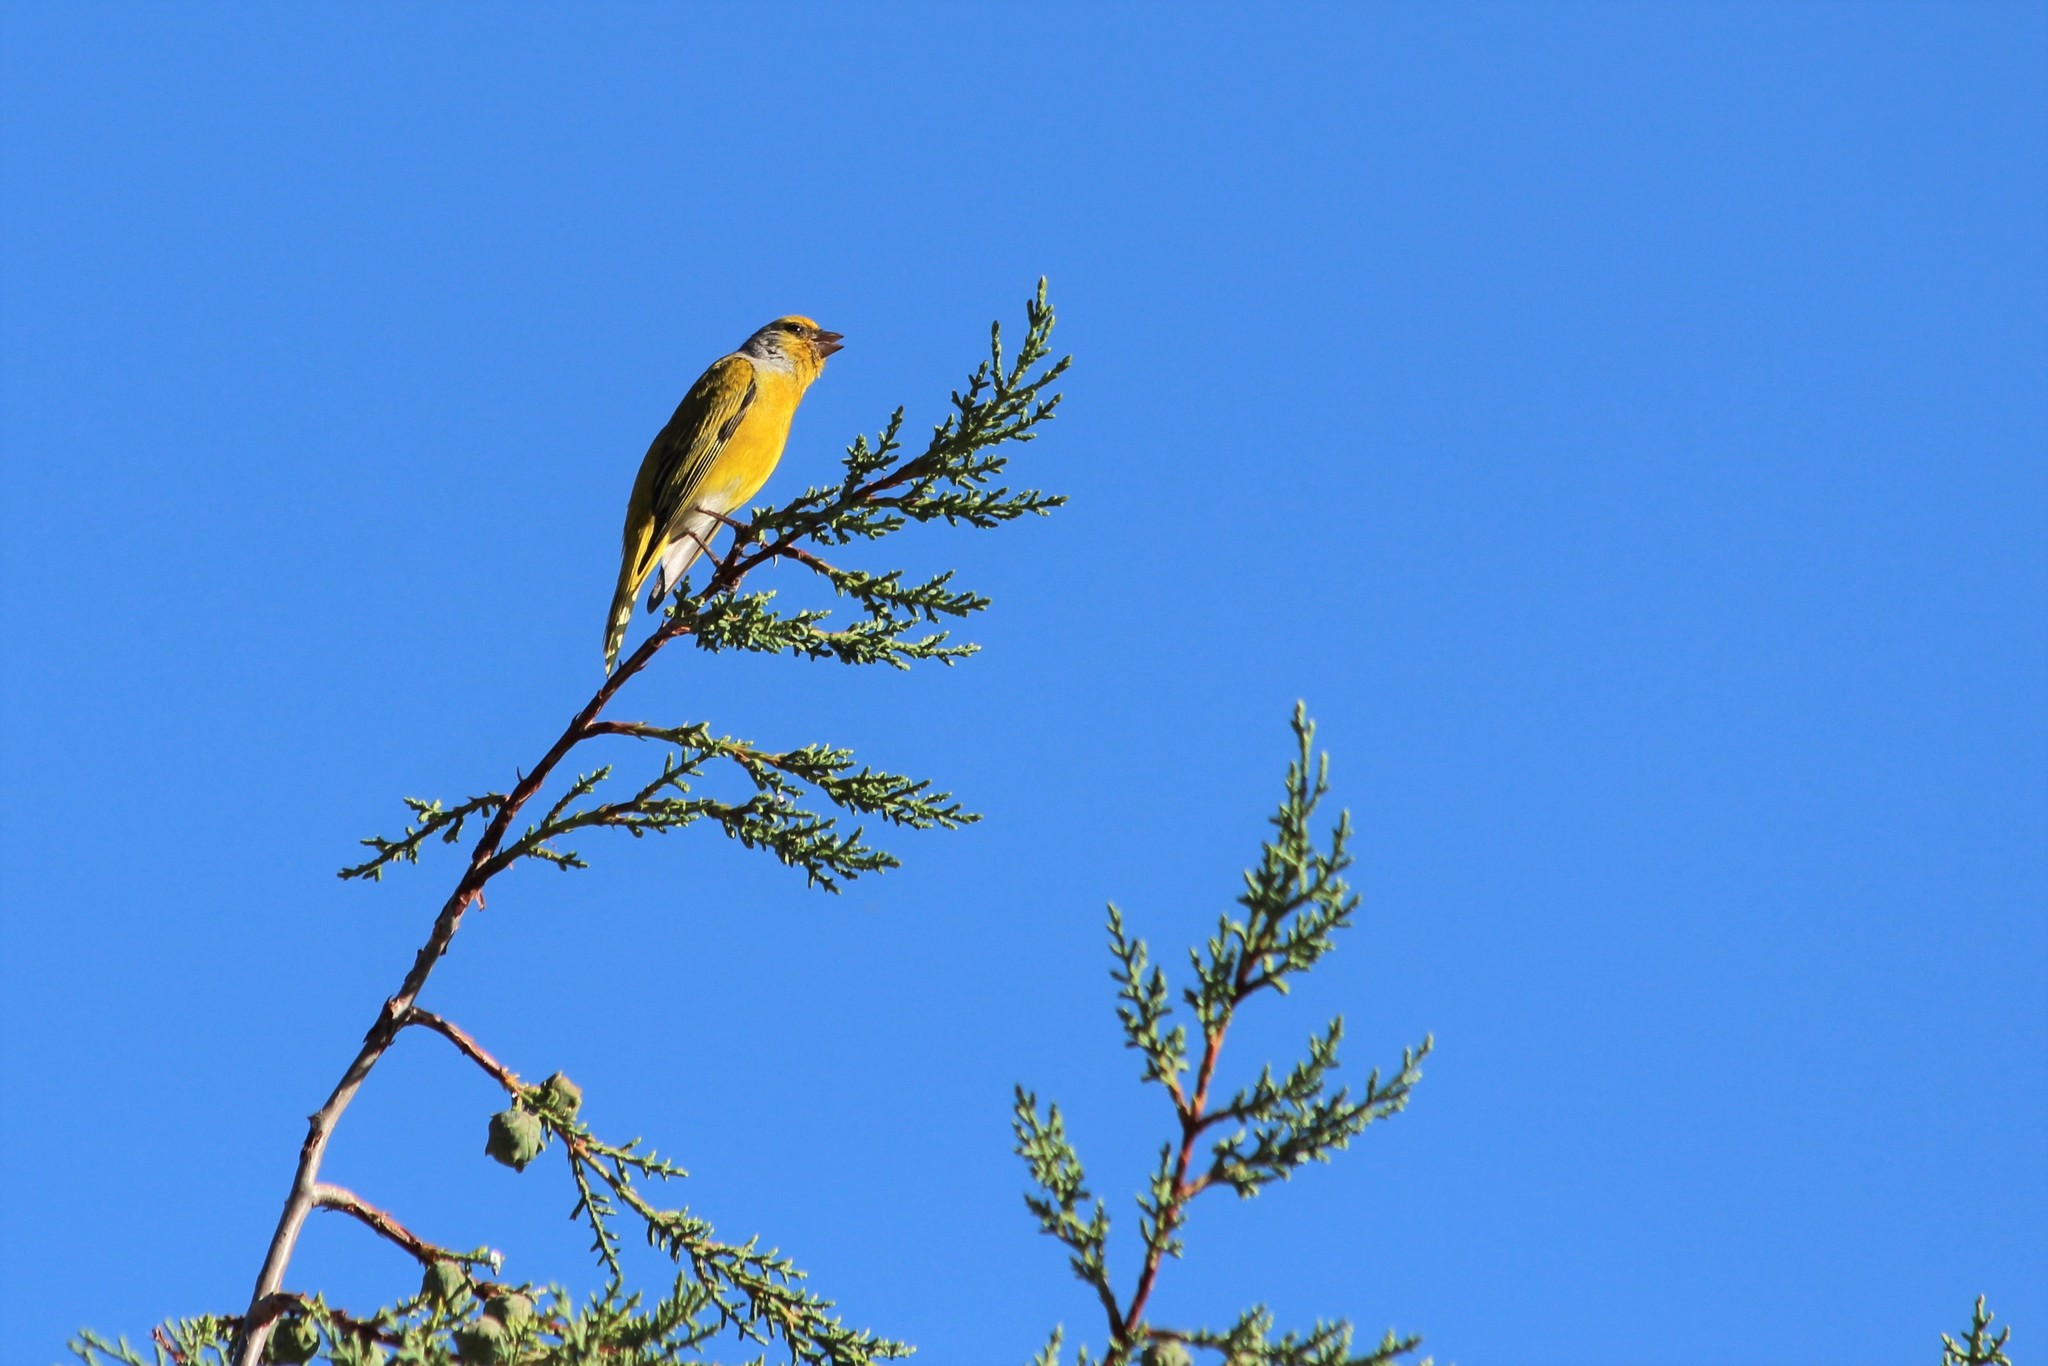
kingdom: Animalia
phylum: Chordata
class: Aves
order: Passeriformes
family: Fringillidae
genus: Serinus
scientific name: Serinus canicollis
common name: Cape canary
